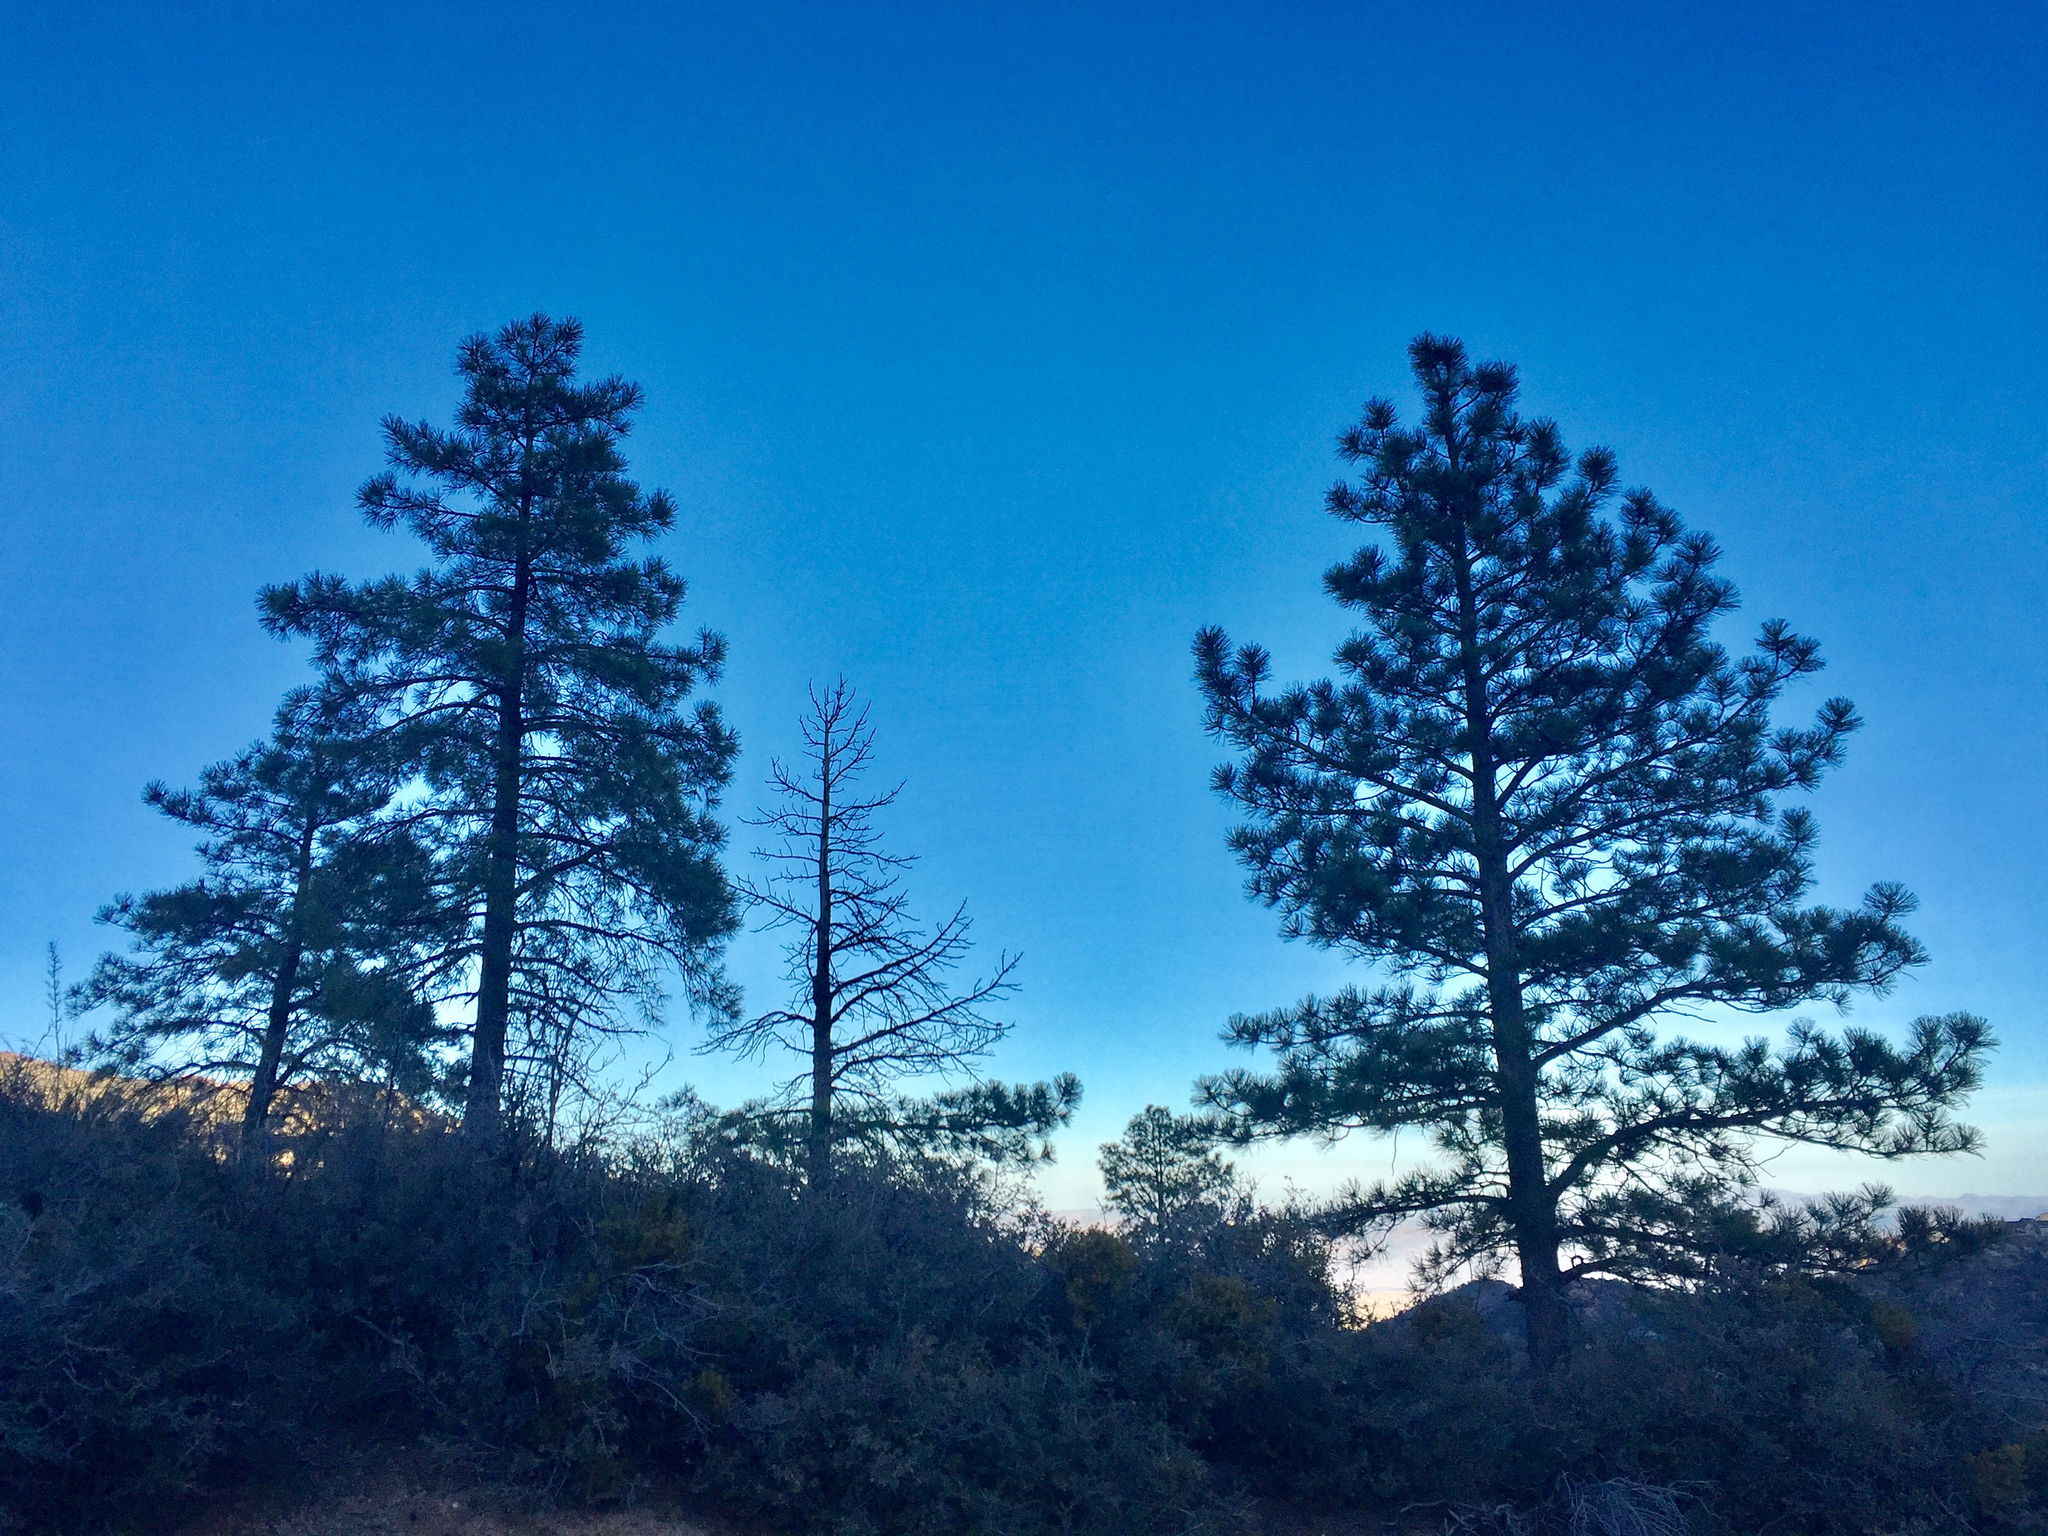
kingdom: Plantae
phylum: Tracheophyta
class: Pinopsida
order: Pinales
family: Pinaceae
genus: Pinus
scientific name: Pinus ponderosa
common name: Western yellow-pine
